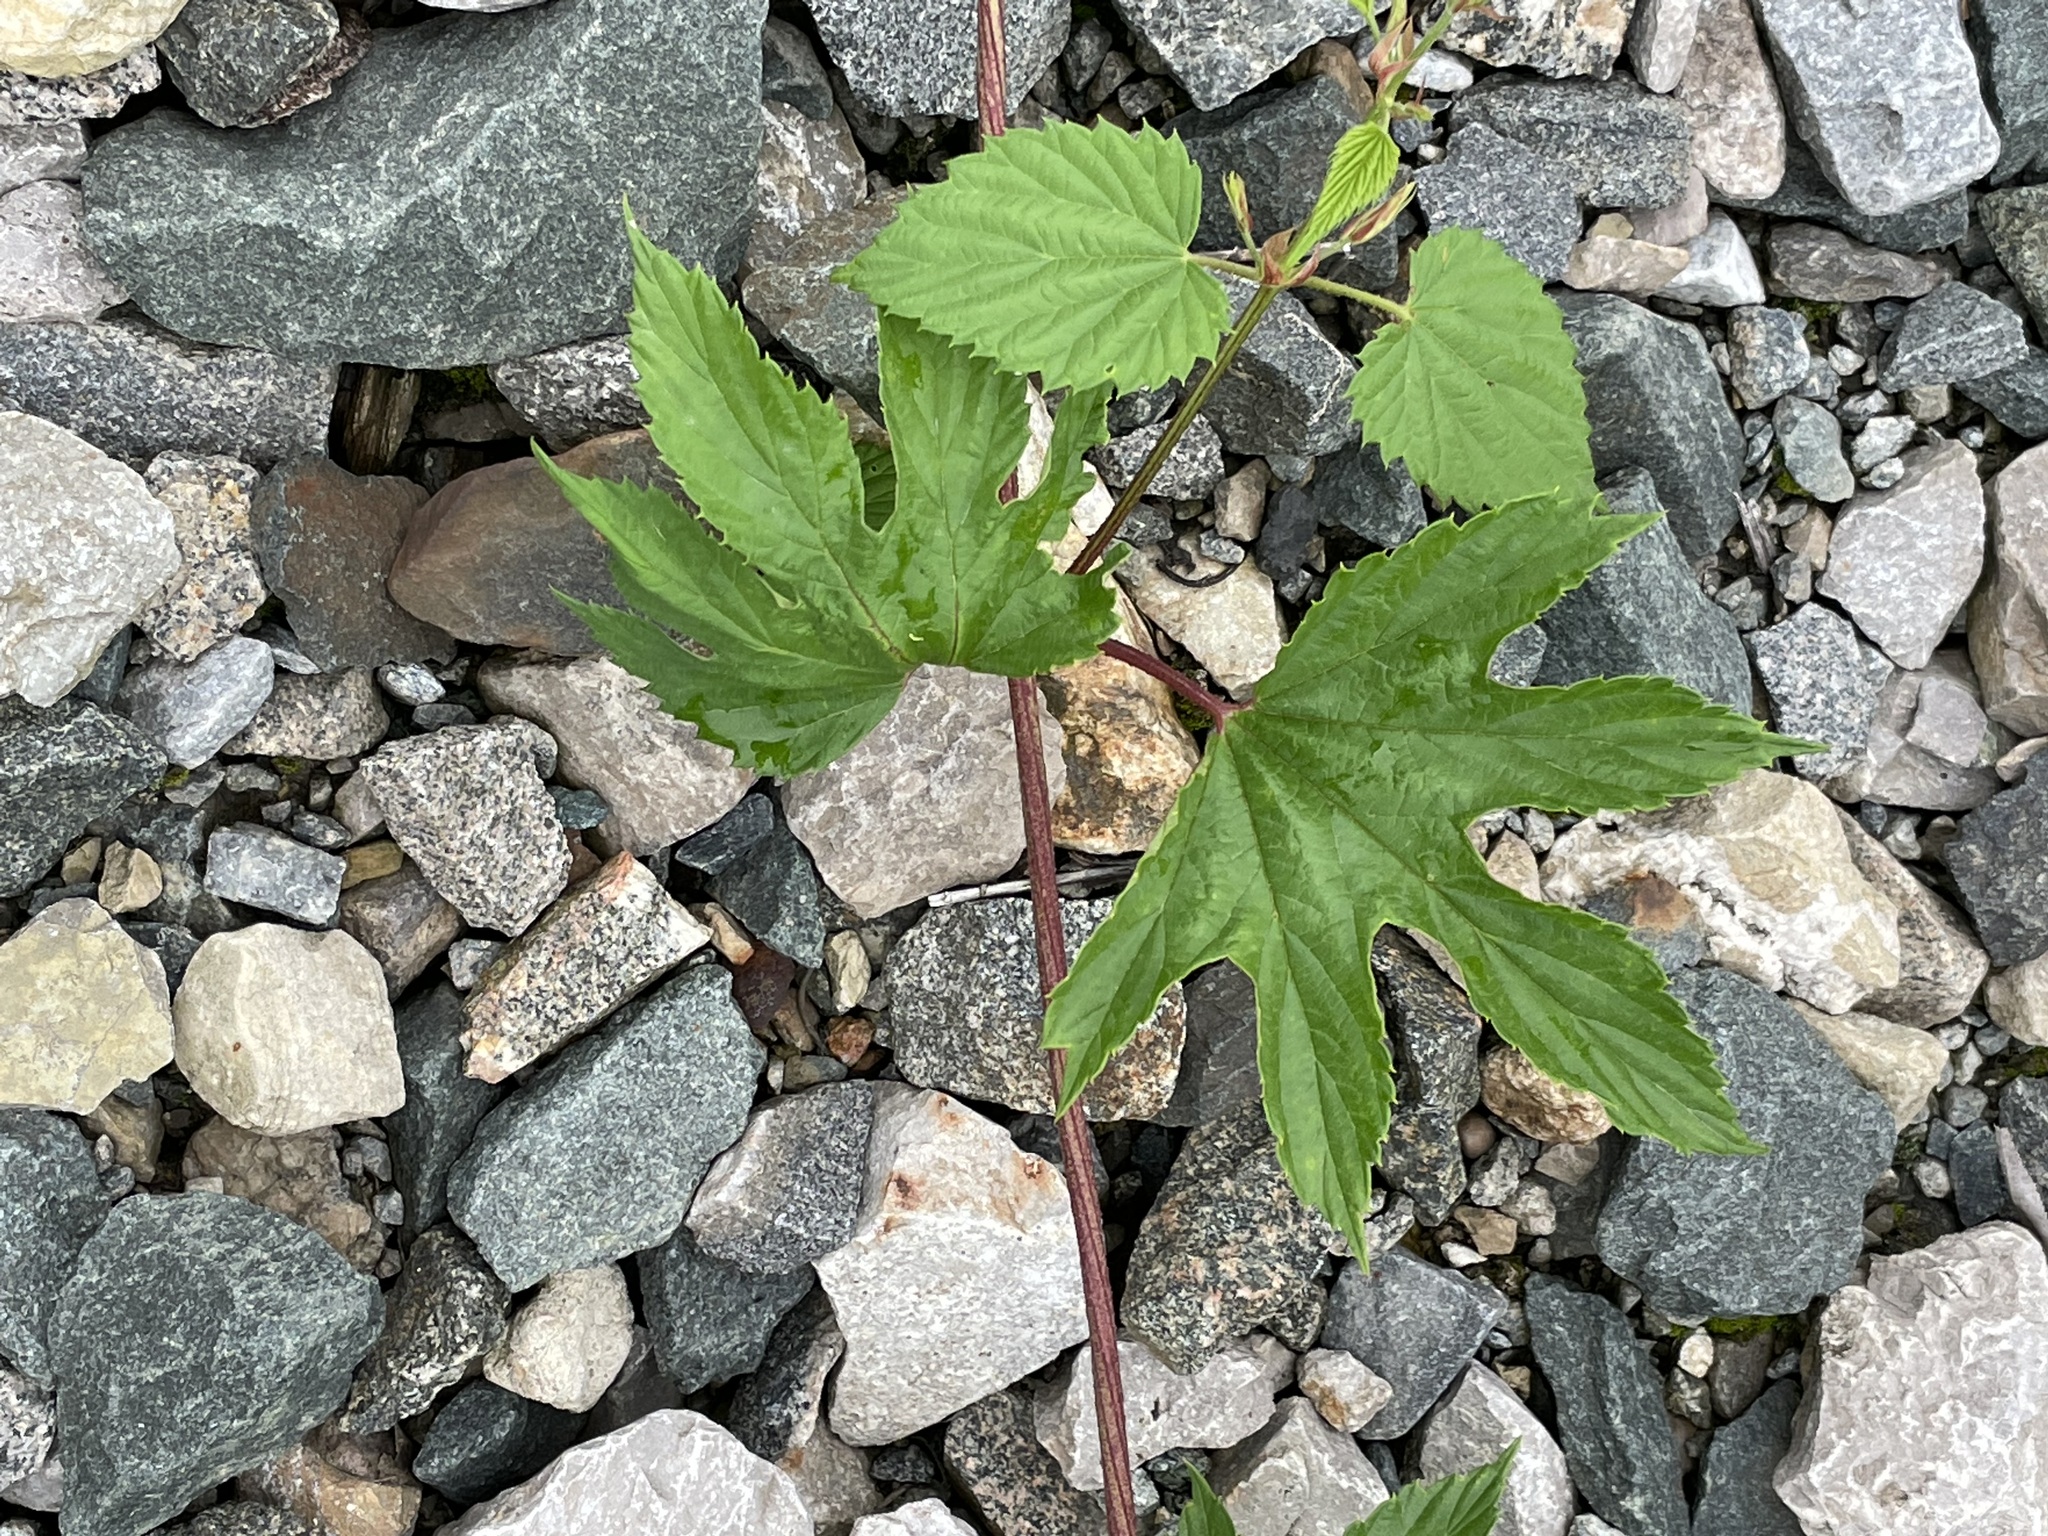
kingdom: Plantae
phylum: Tracheophyta
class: Magnoliopsida
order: Rosales
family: Cannabaceae
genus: Humulus
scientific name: Humulus lupulus
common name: Hop
